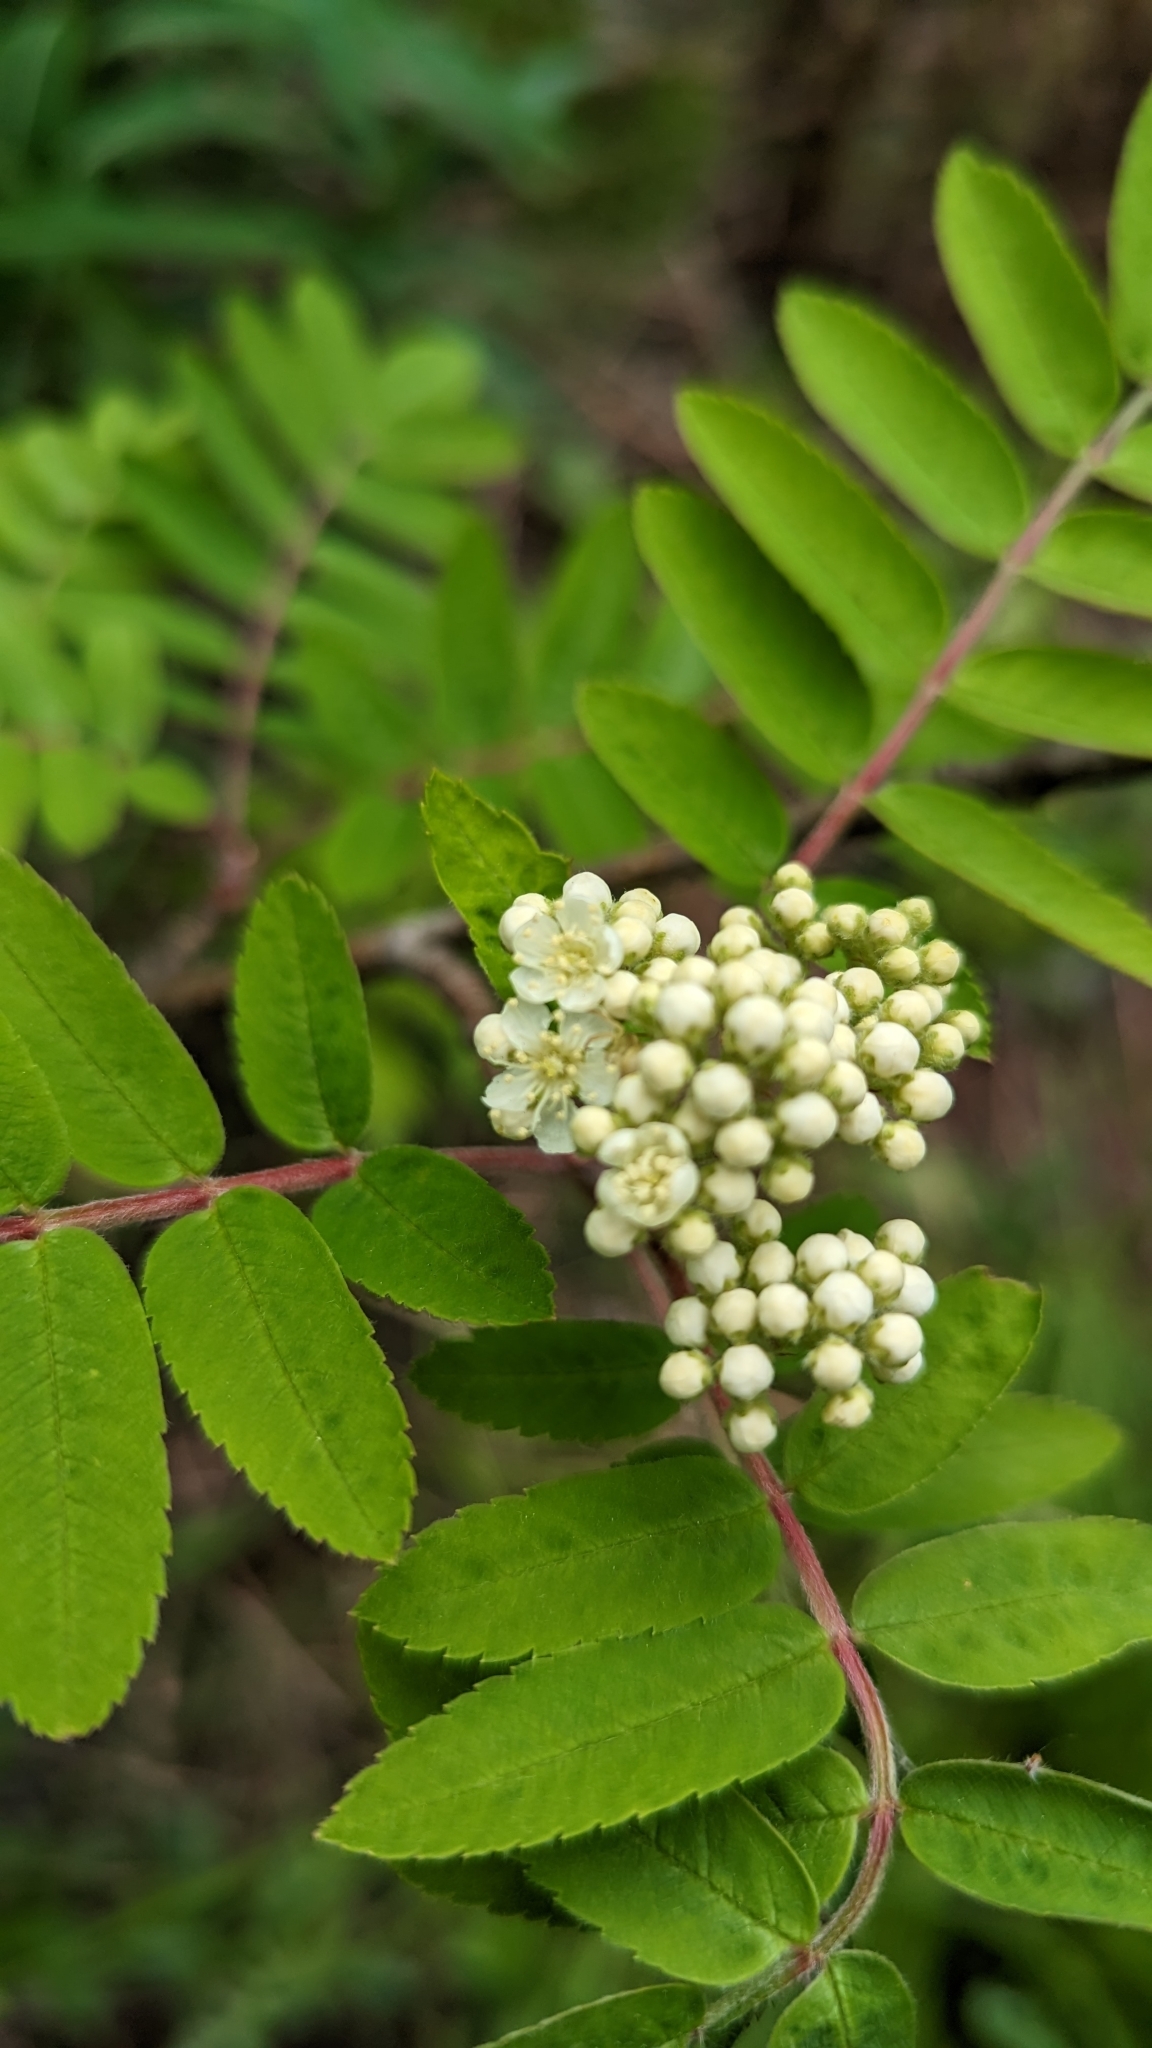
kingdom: Plantae
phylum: Tracheophyta
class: Magnoliopsida
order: Rosales
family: Rosaceae
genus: Sorbus
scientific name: Sorbus aucuparia
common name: Rowan
